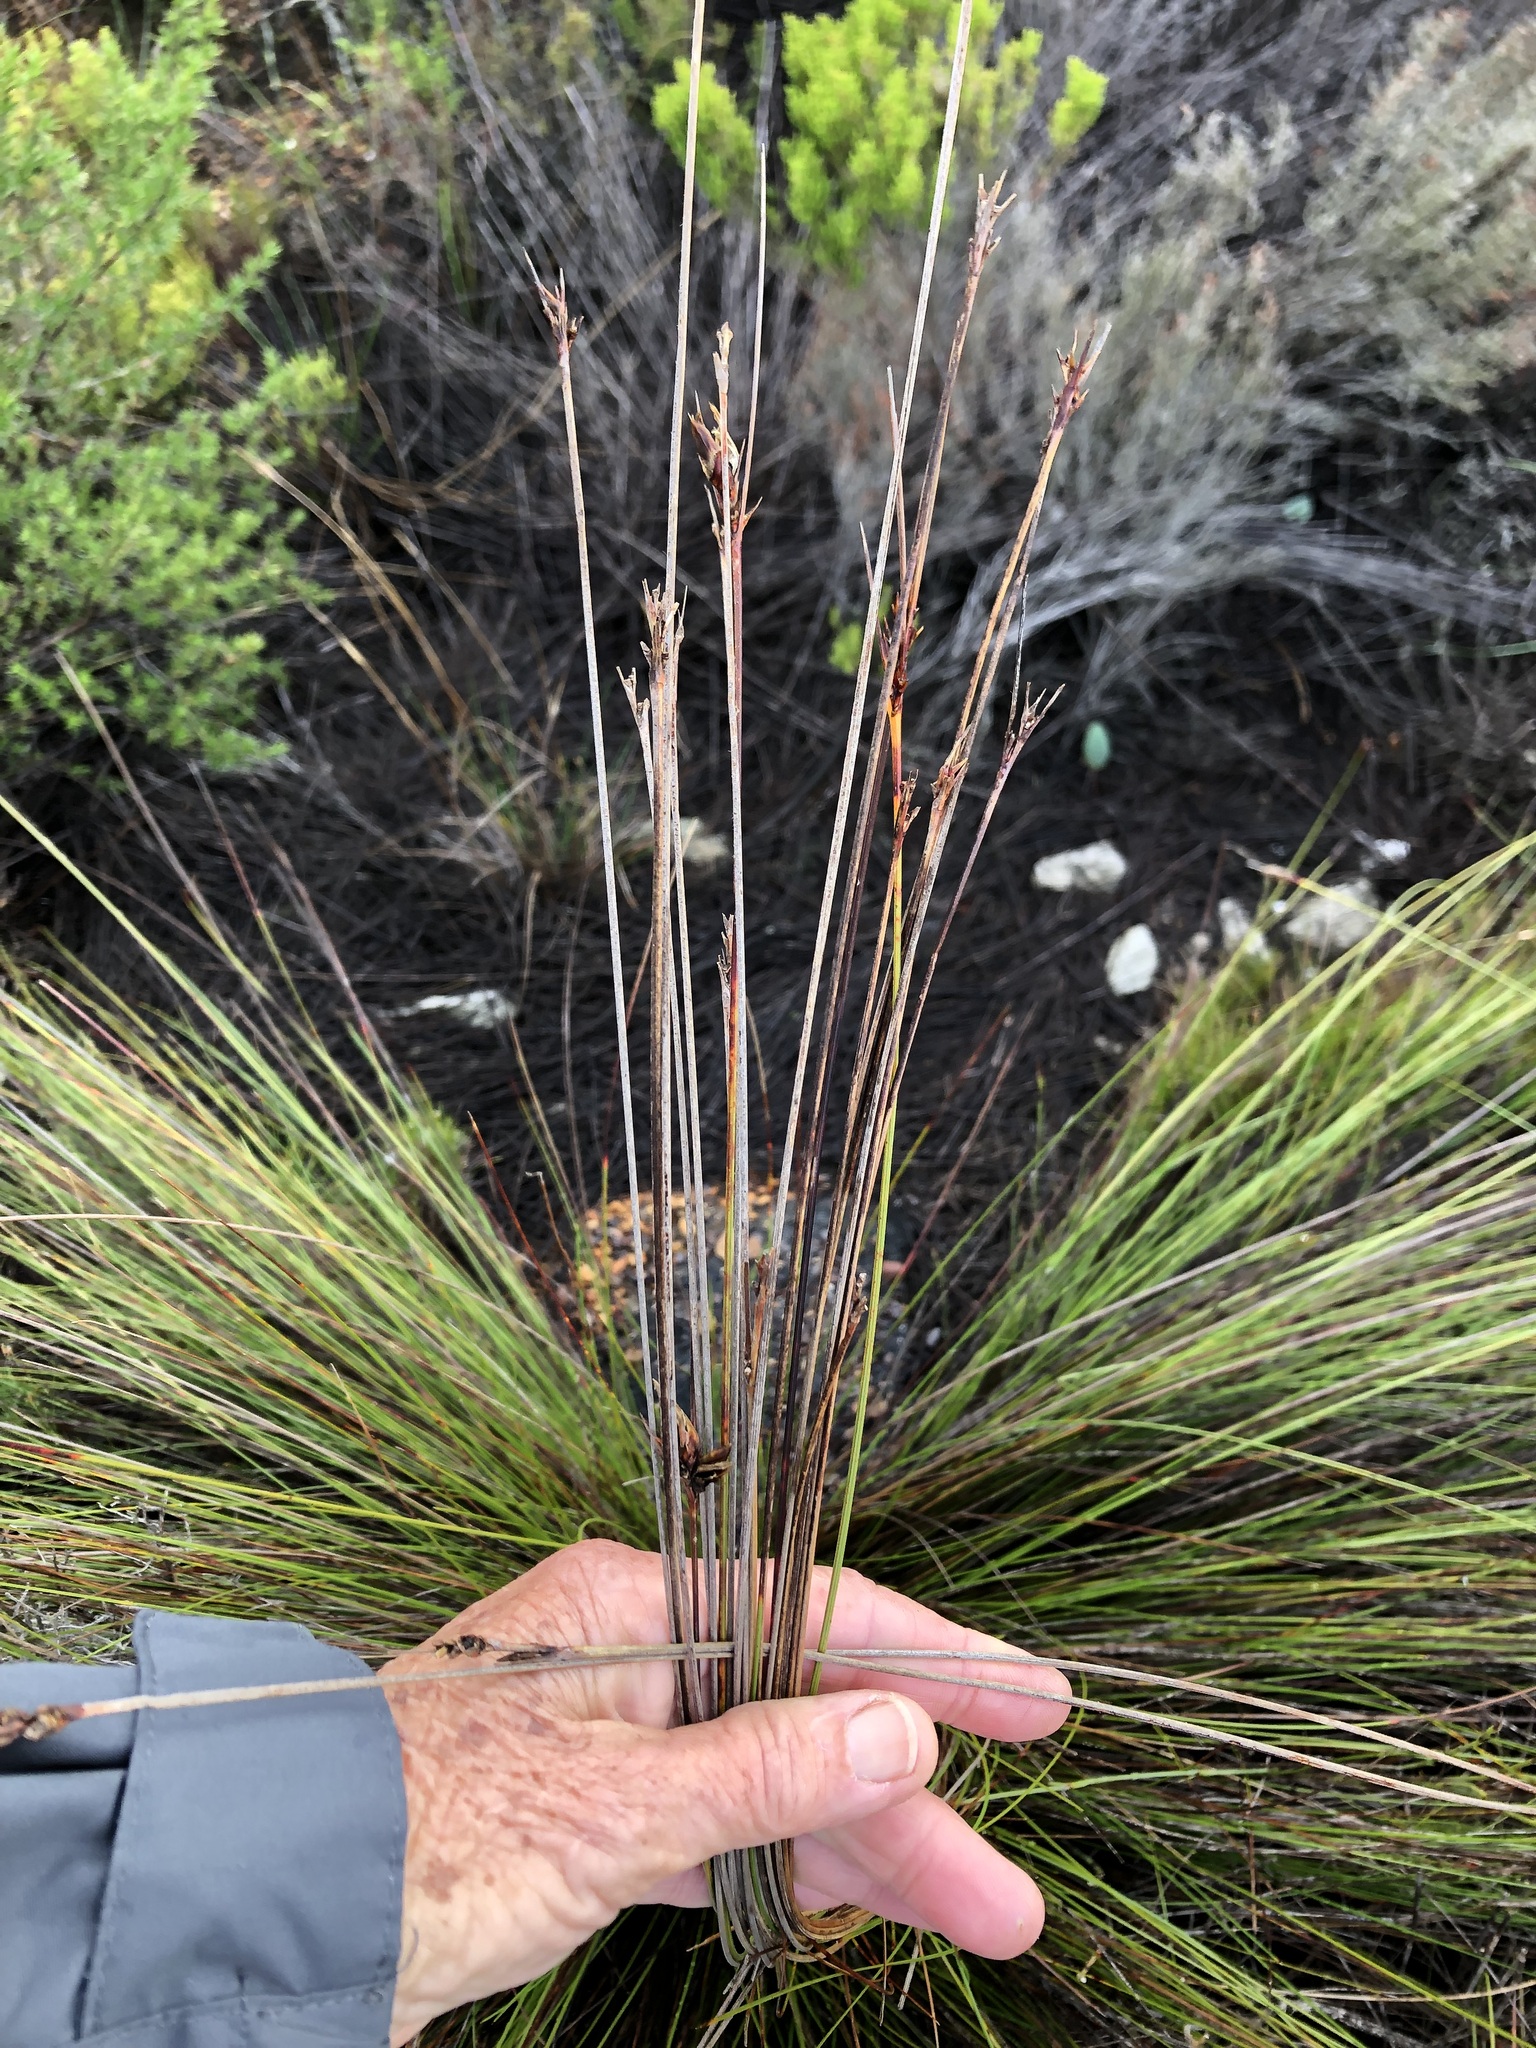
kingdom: Plantae
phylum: Tracheophyta
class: Liliopsida
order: Poales
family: Cyperaceae
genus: Schoenus
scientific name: Schoenus compar
